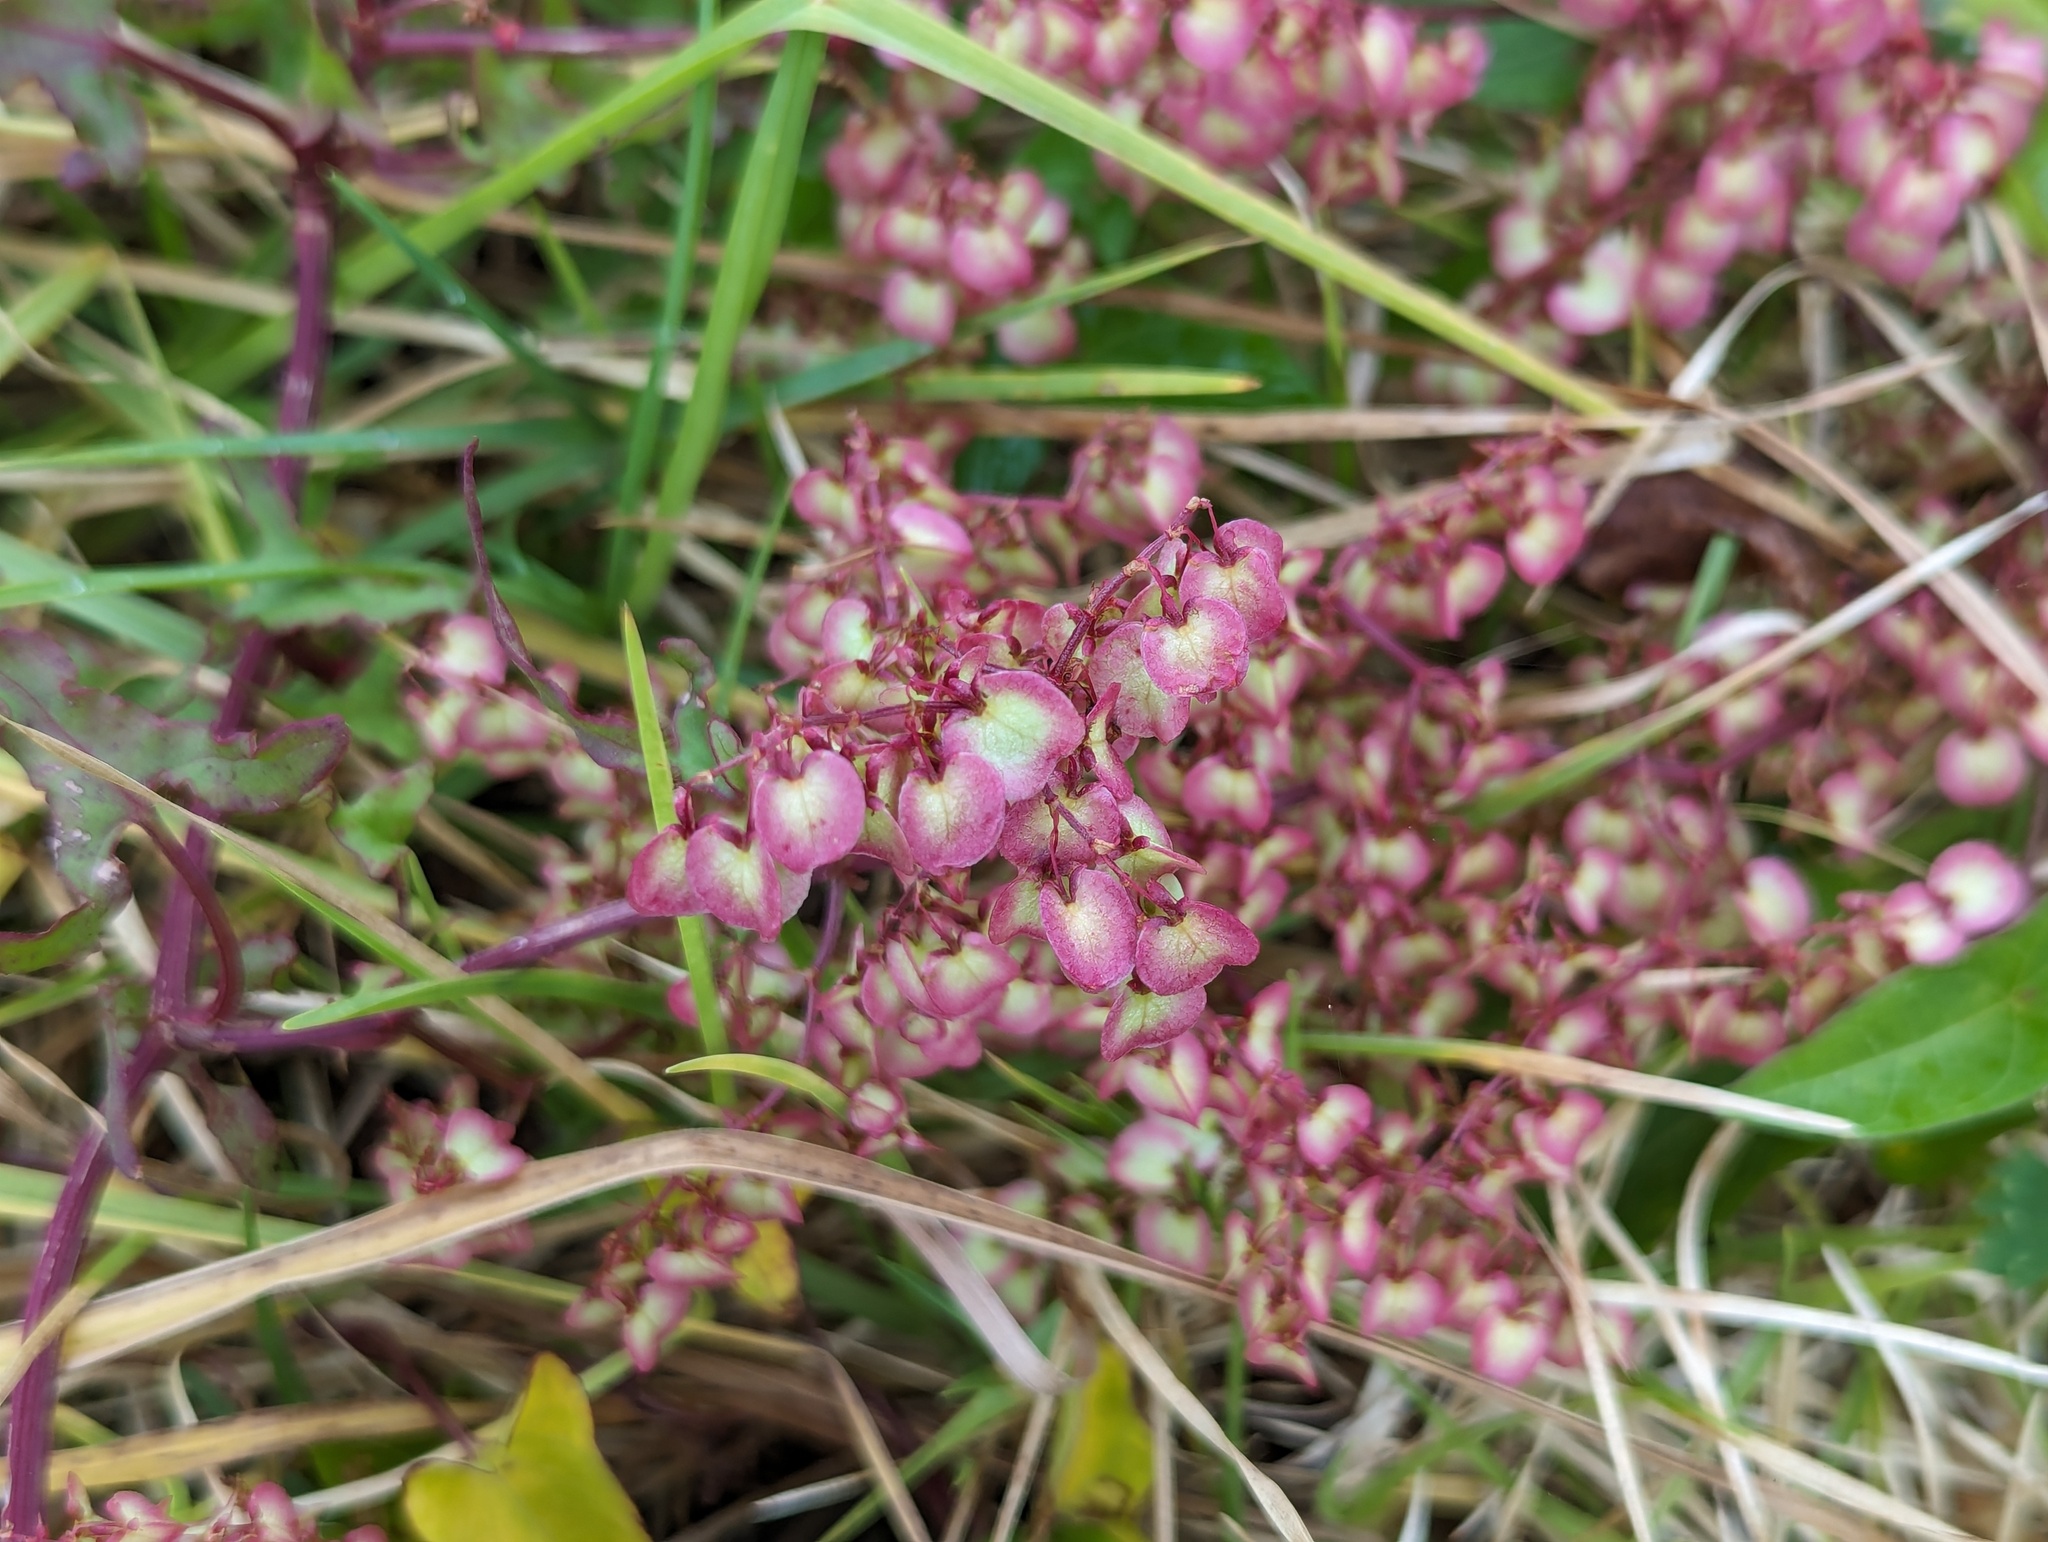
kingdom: Plantae
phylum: Tracheophyta
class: Magnoliopsida
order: Caryophyllales
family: Polygonaceae
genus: Rumex
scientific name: Rumex sagittatus
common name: Climbing dock
